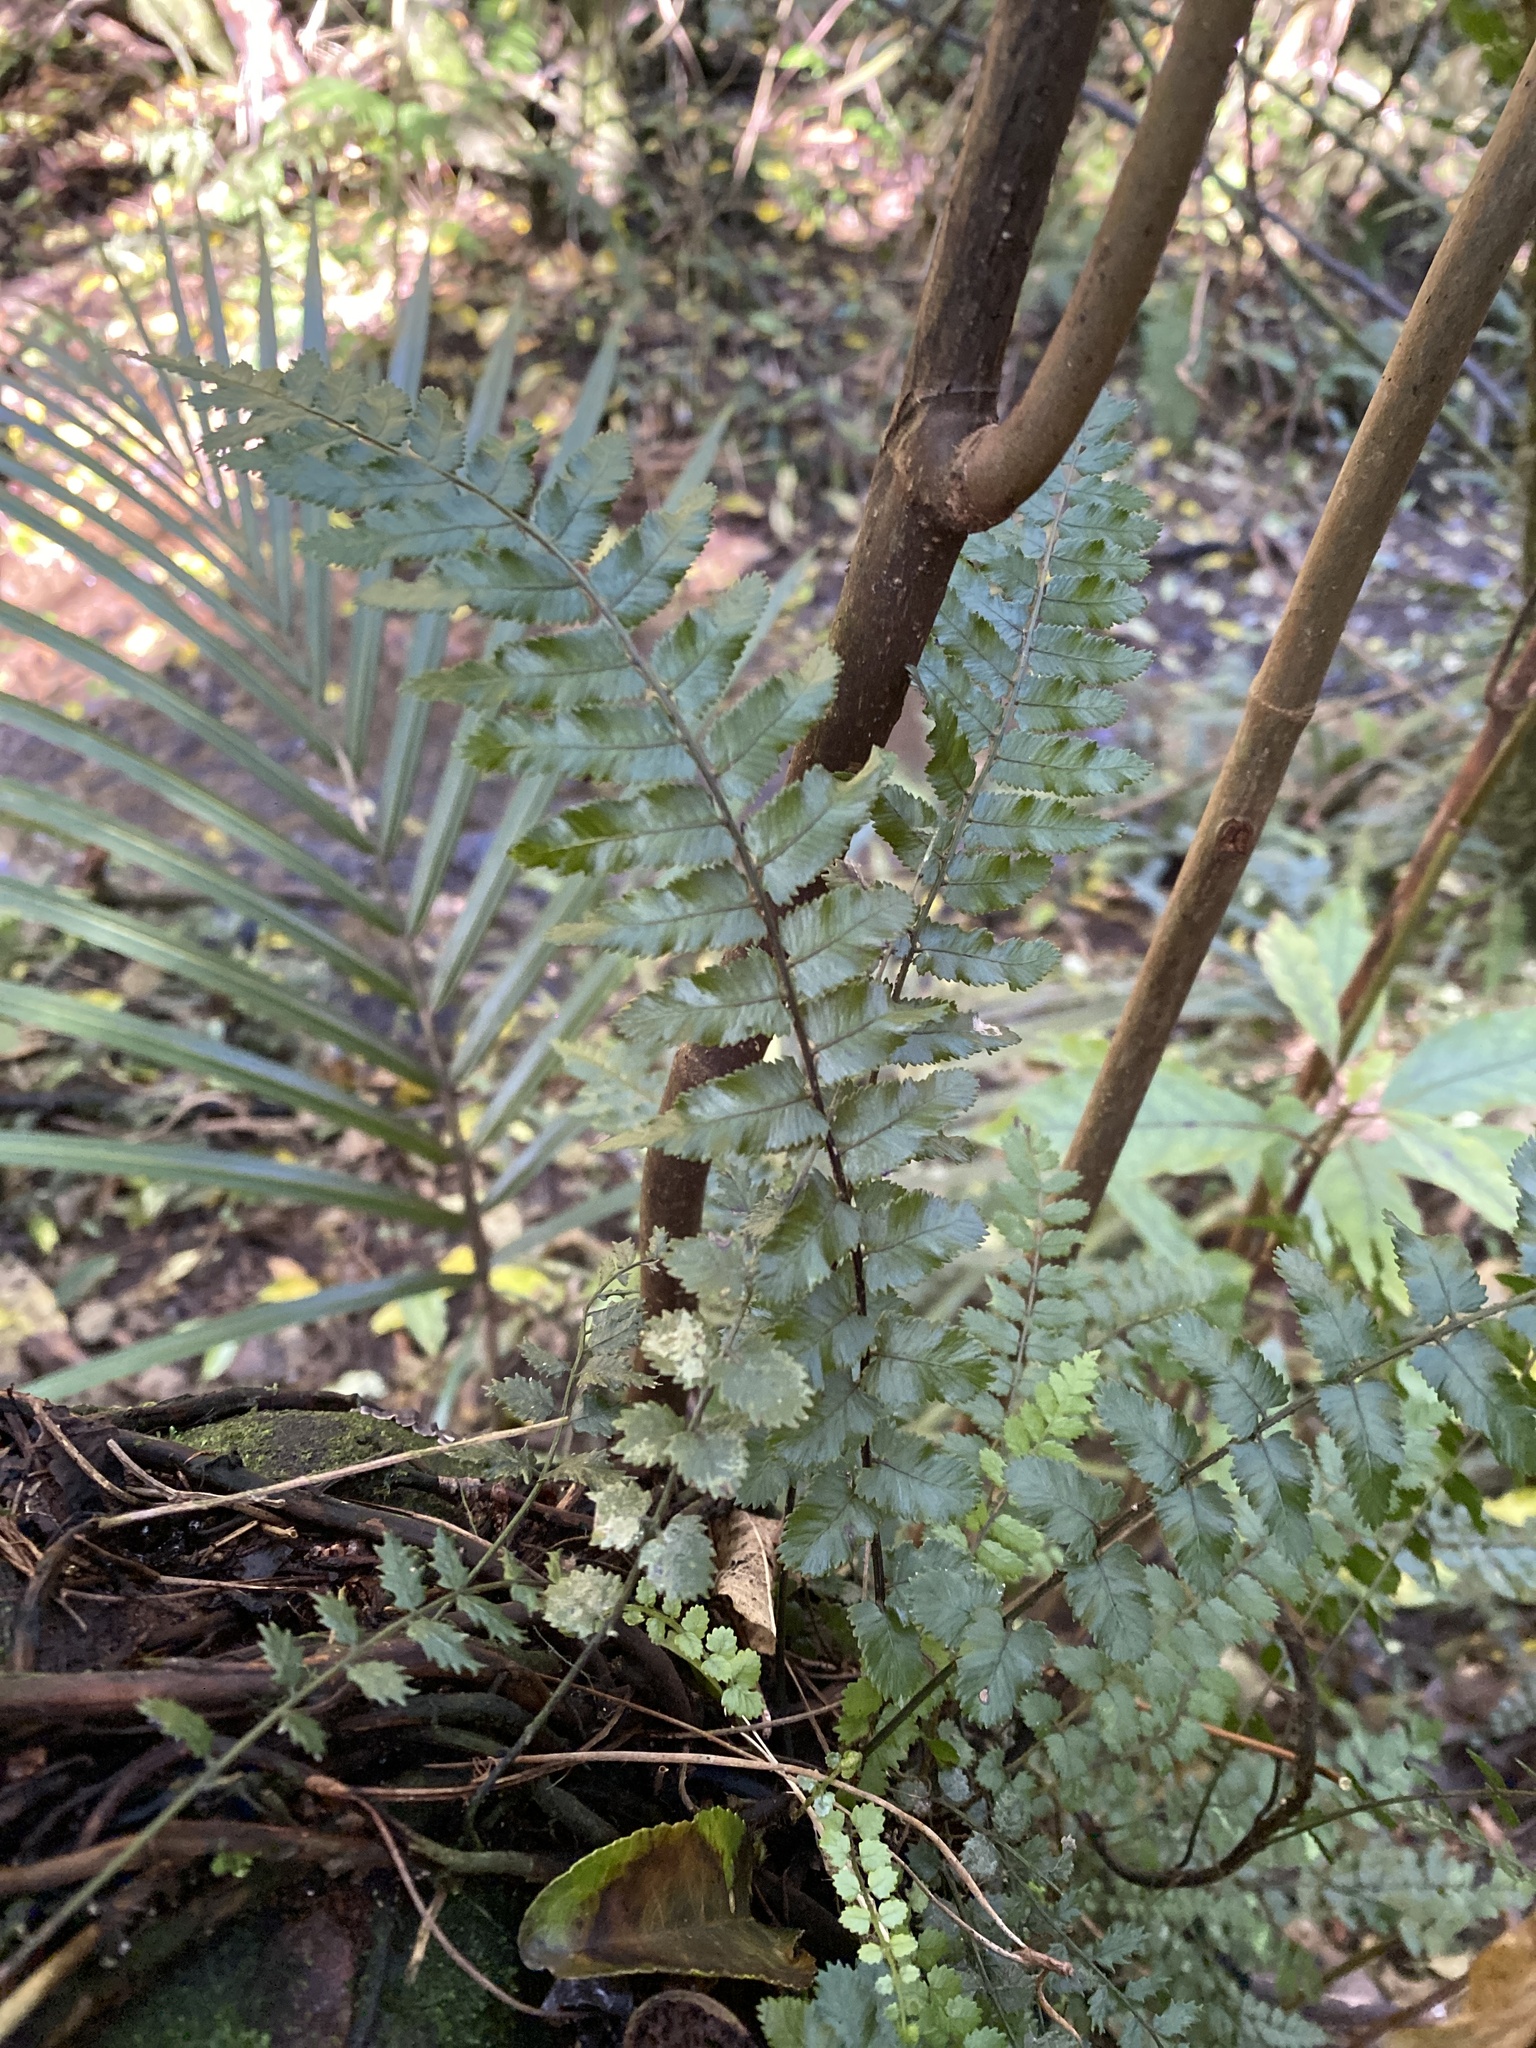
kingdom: Plantae
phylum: Tracheophyta
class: Polypodiopsida
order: Polypodiales
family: Blechnaceae
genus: Icarus
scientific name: Icarus filiformis
